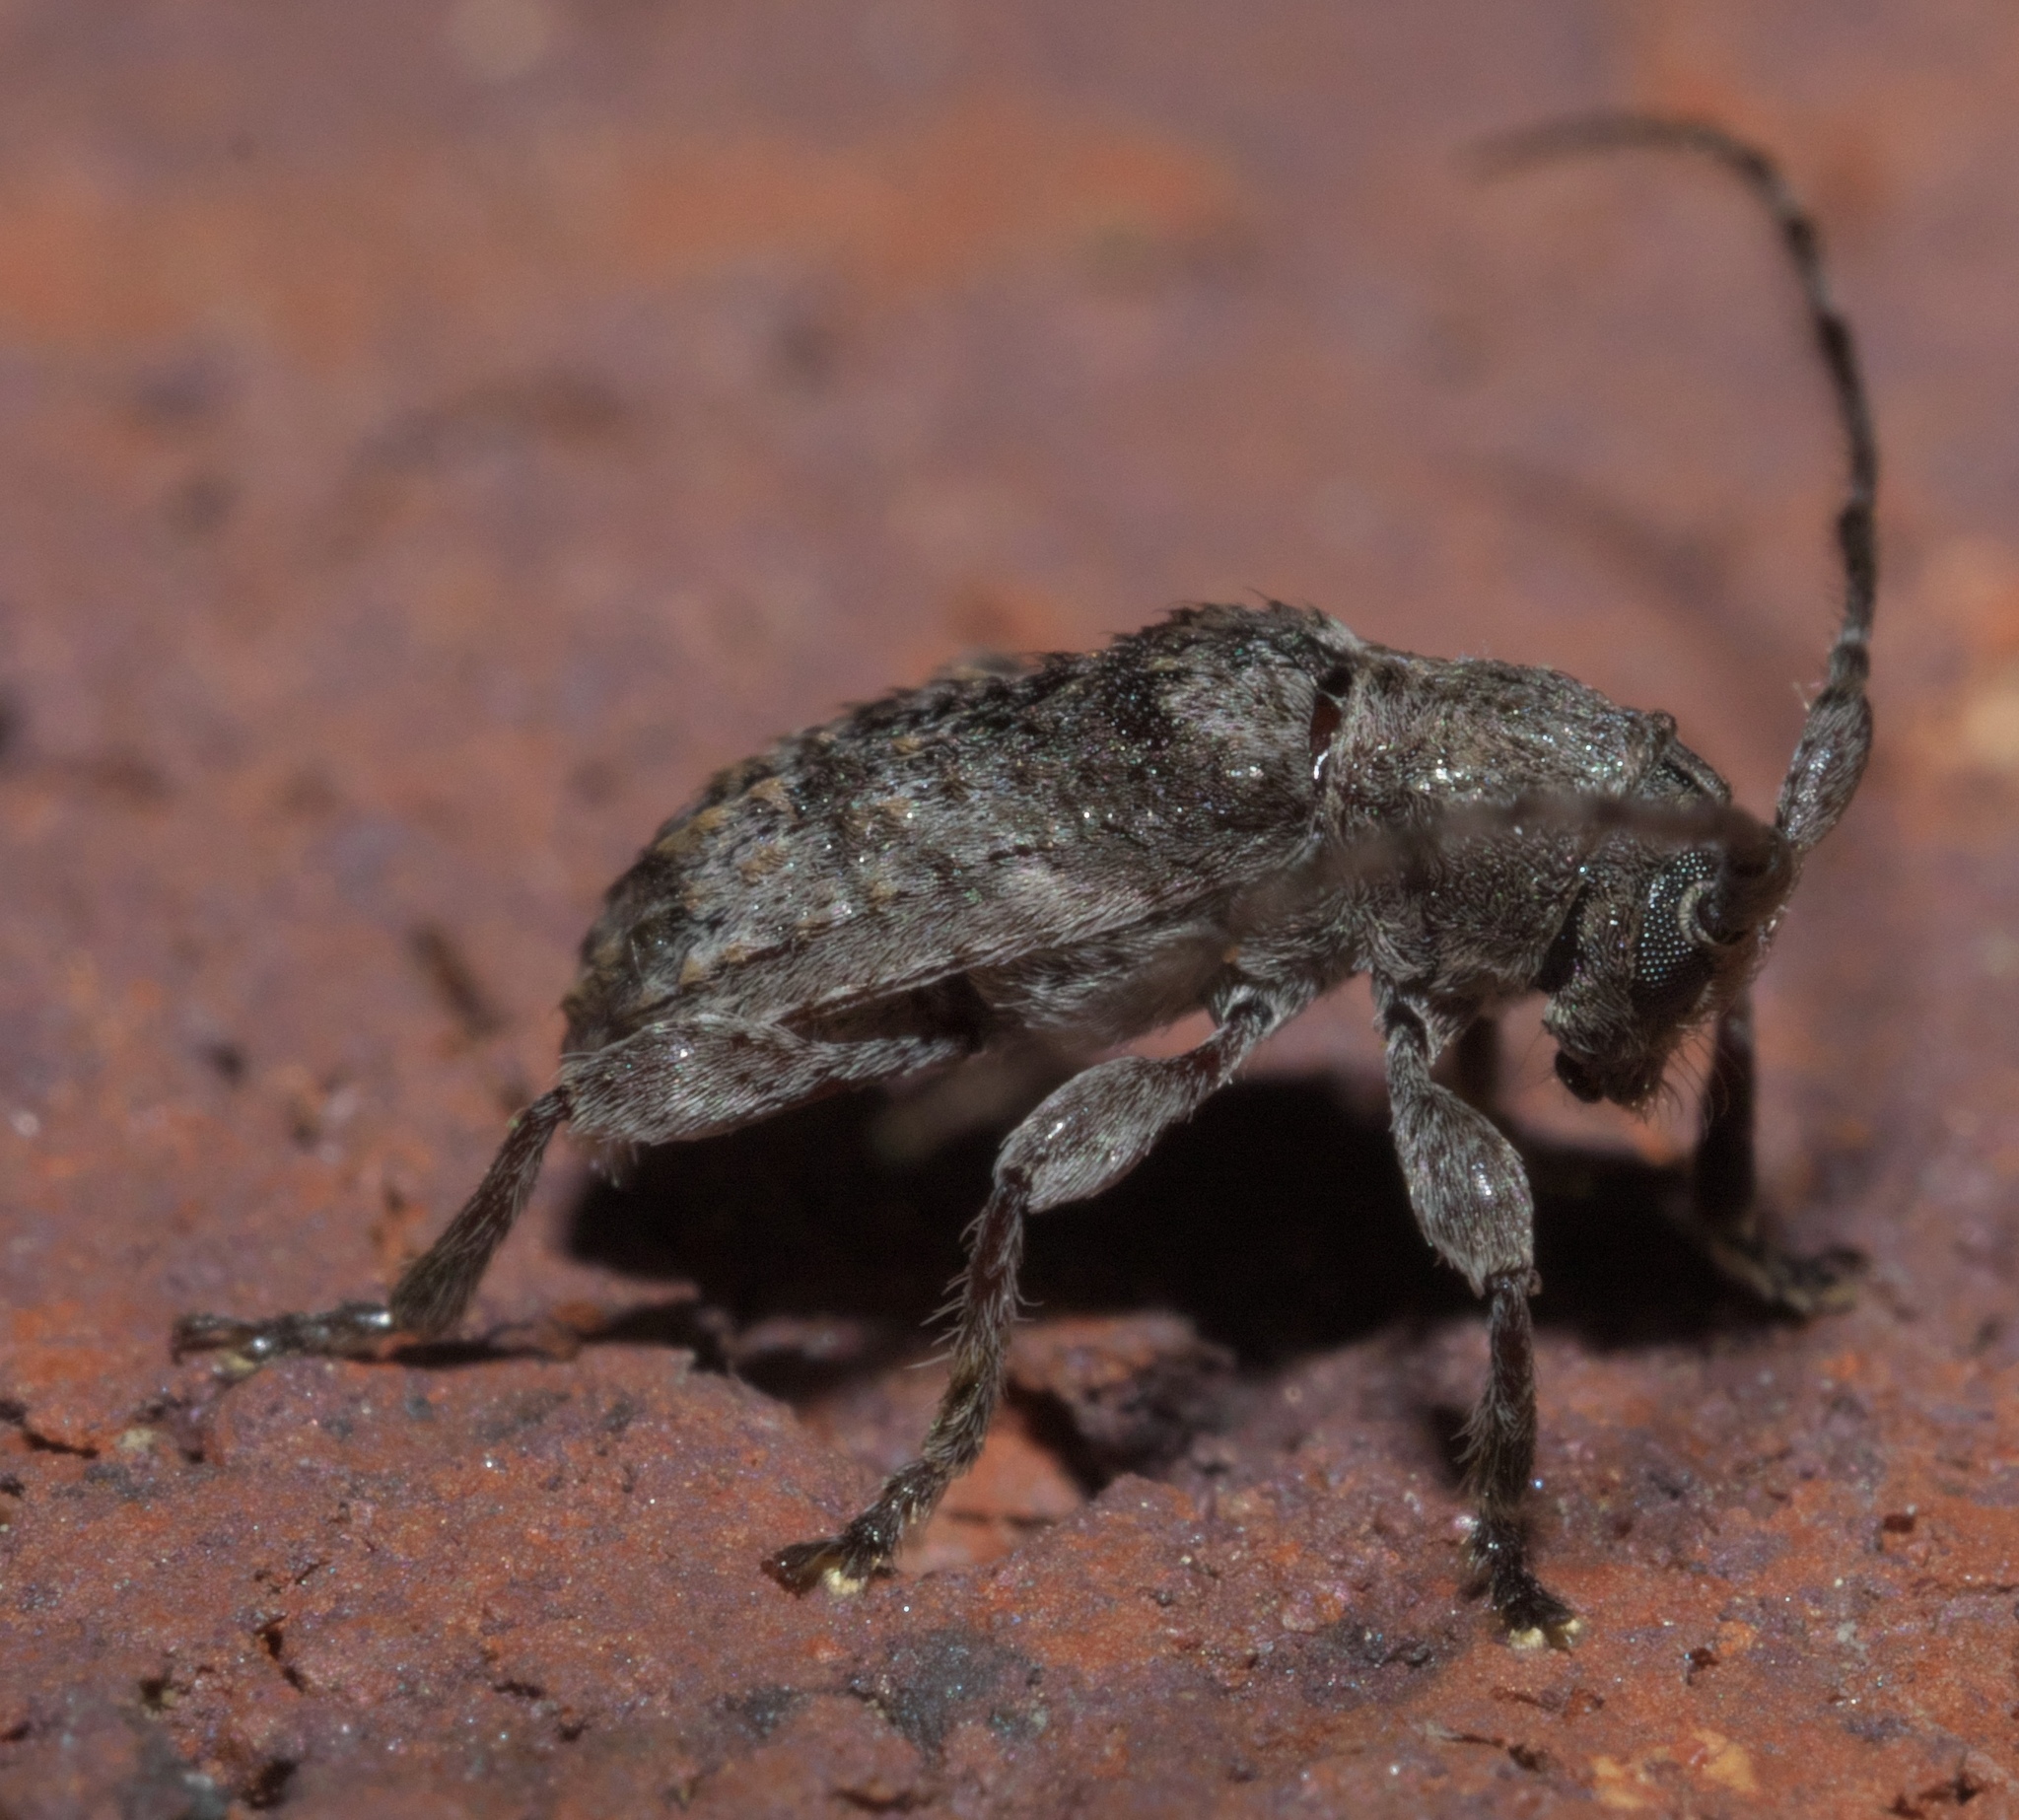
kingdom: Animalia
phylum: Arthropoda
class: Insecta
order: Coleoptera
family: Cerambycidae
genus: Ecyrus
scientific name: Ecyrus dasycerus
